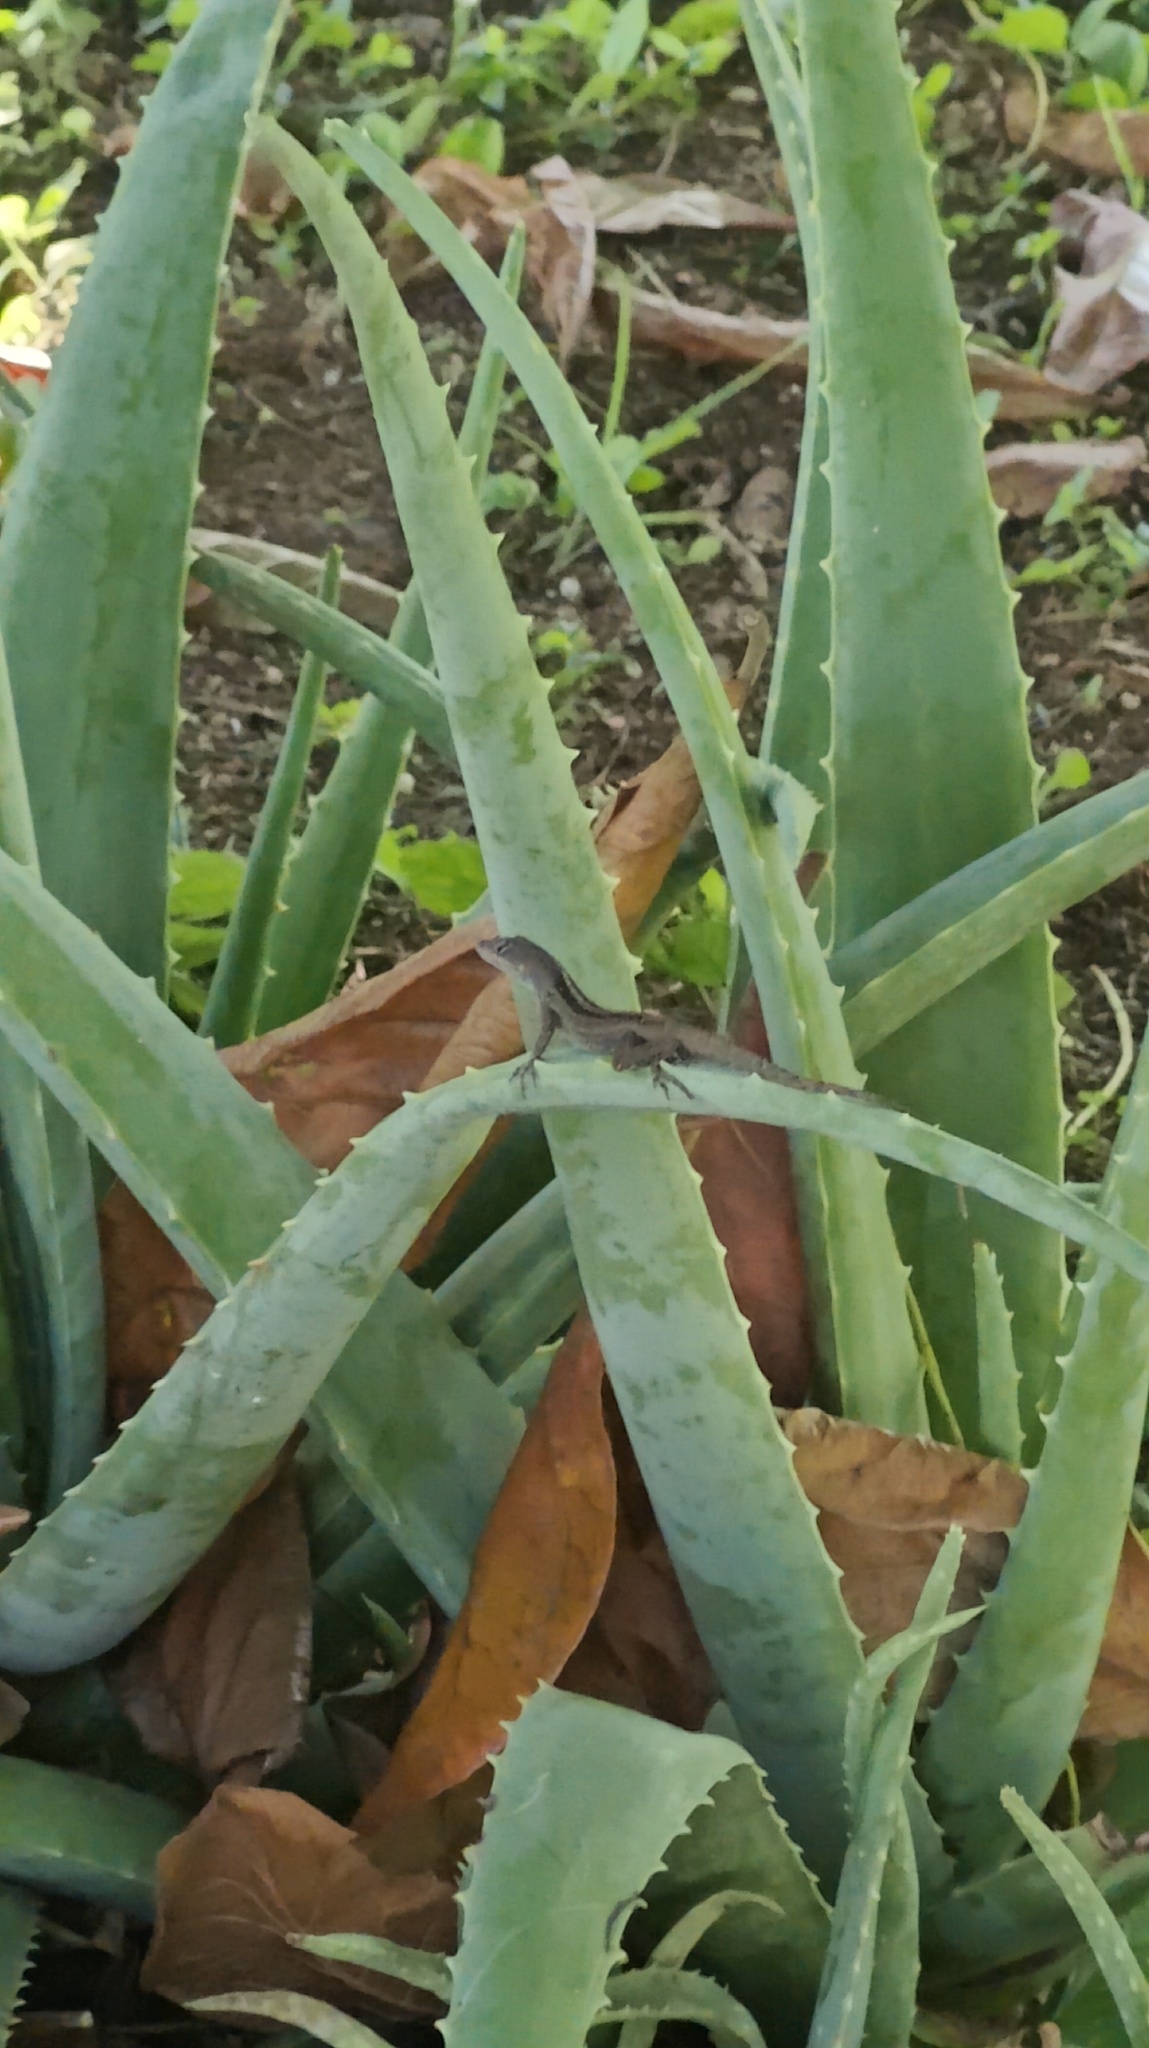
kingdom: Animalia
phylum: Chordata
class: Squamata
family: Dactyloidae
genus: Anolis
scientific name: Anolis sagrei
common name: Brown anole
